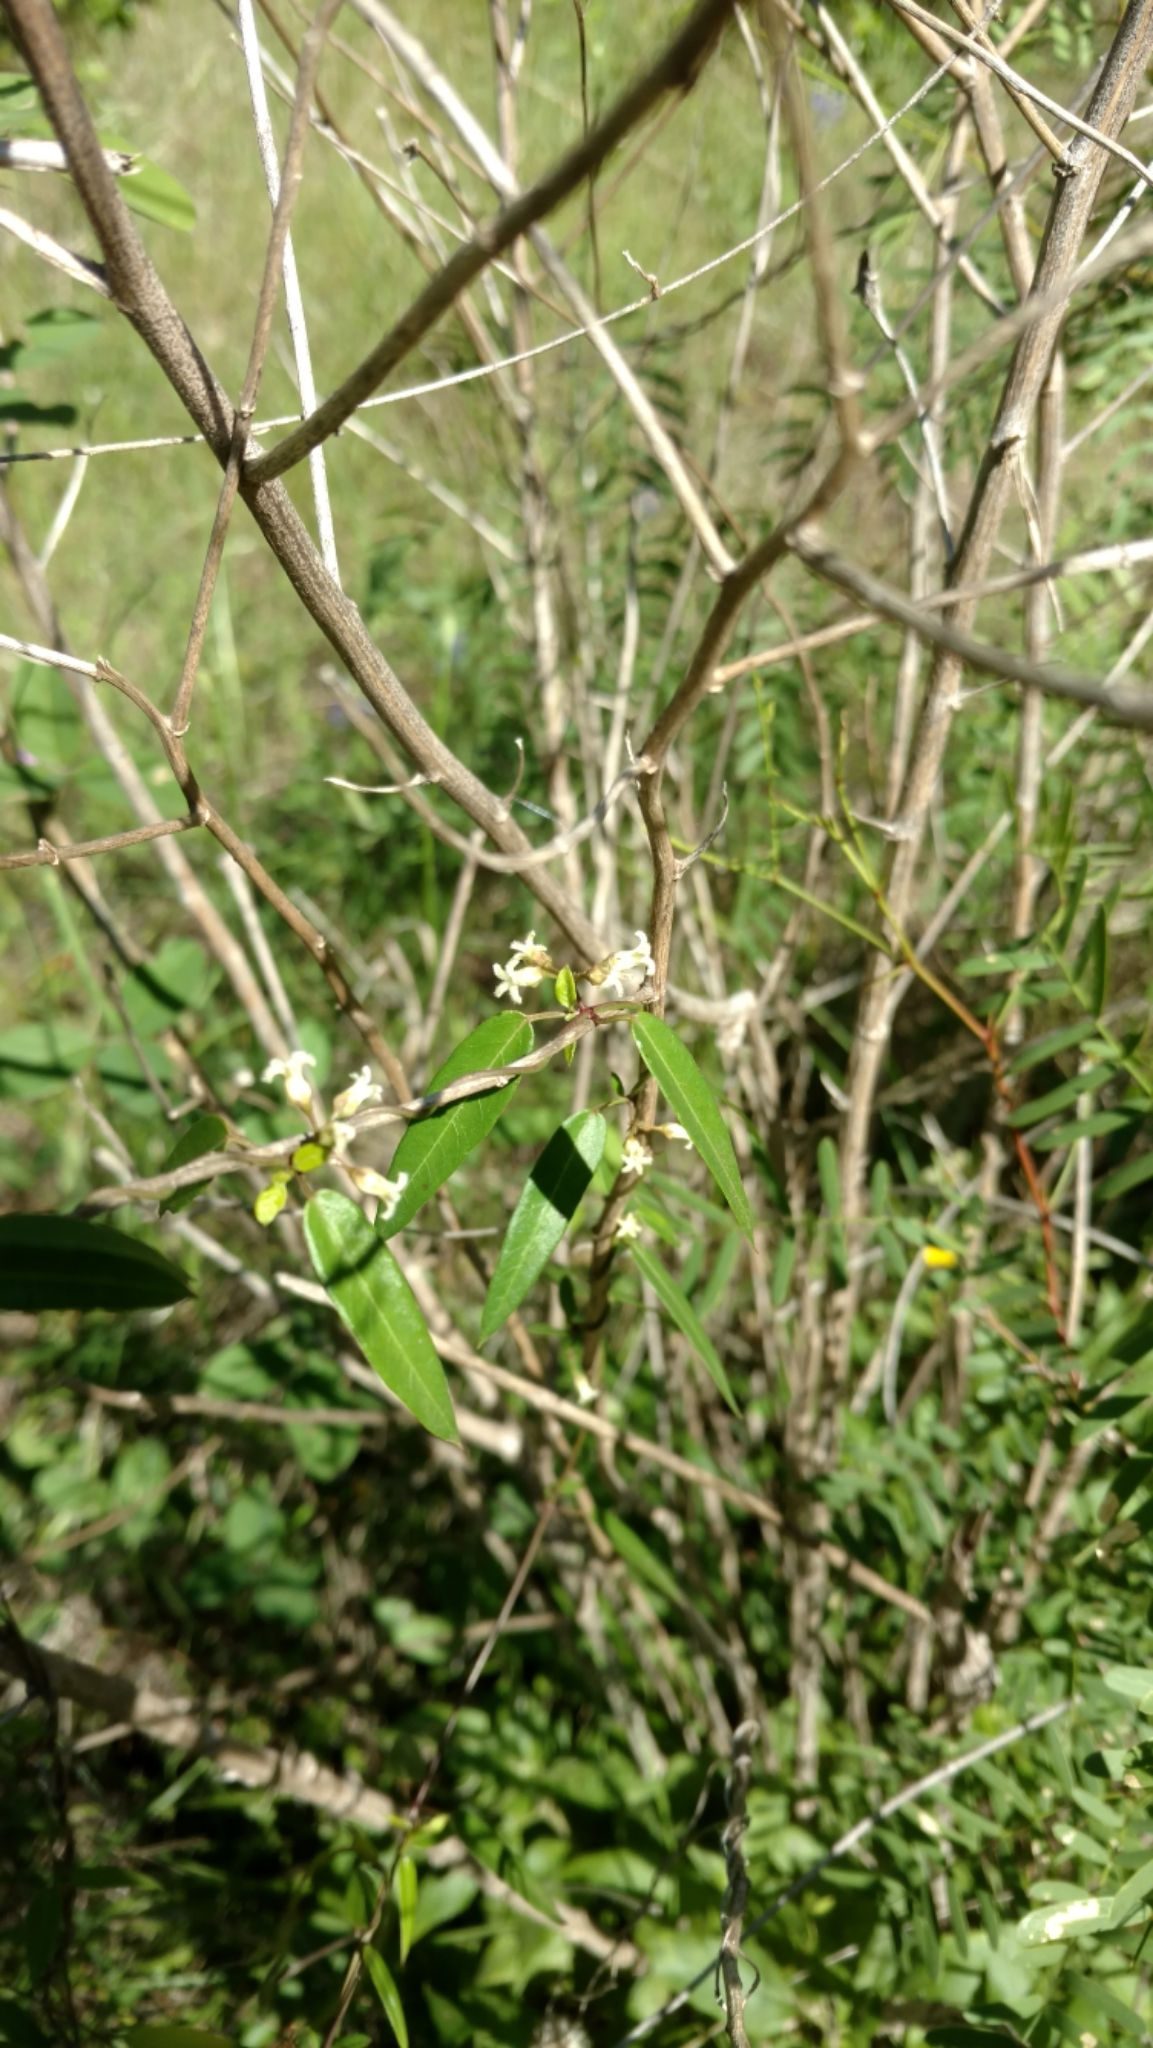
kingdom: Plantae
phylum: Tracheophyta
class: Magnoliopsida
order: Gentianales
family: Apocynaceae
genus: Metastelma
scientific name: Metastelma barbigerum
